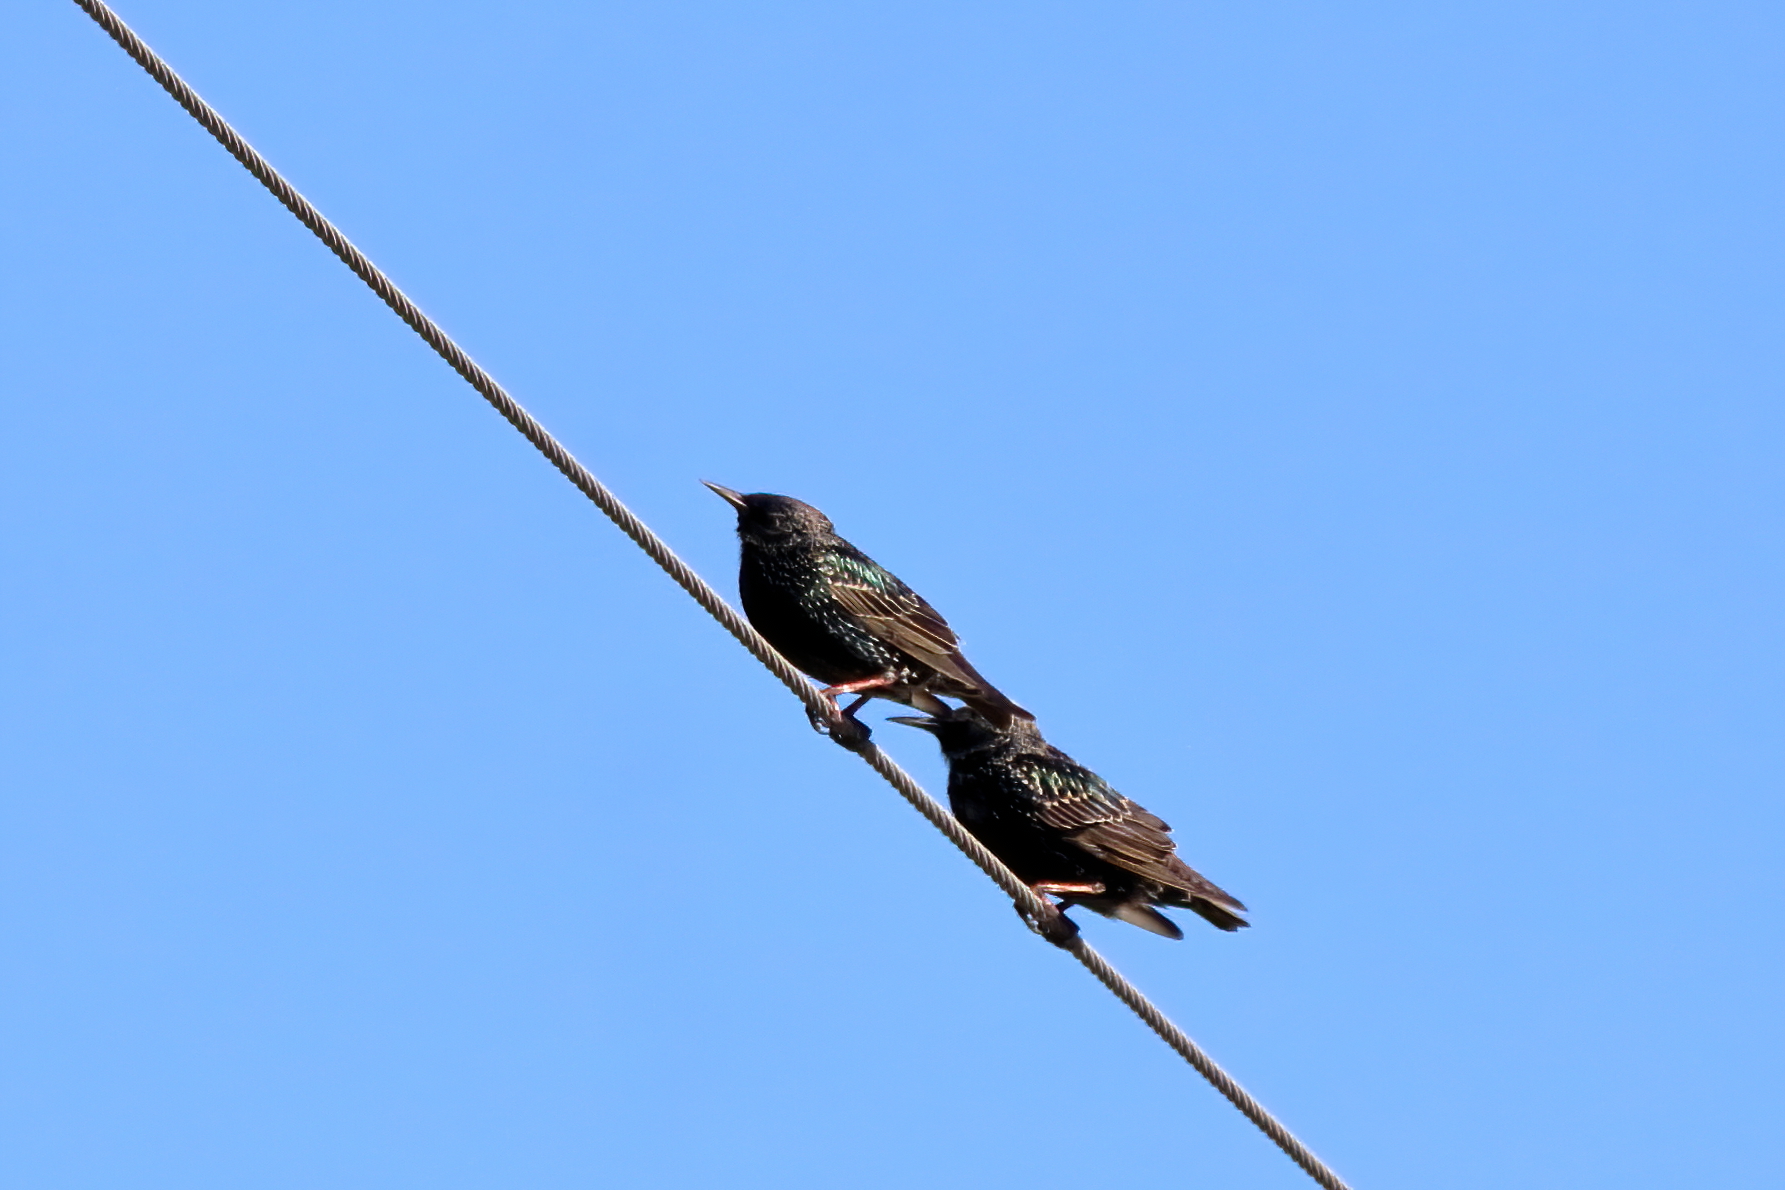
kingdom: Animalia
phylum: Chordata
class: Aves
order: Passeriformes
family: Sturnidae
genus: Sturnus
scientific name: Sturnus vulgaris
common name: Common starling
